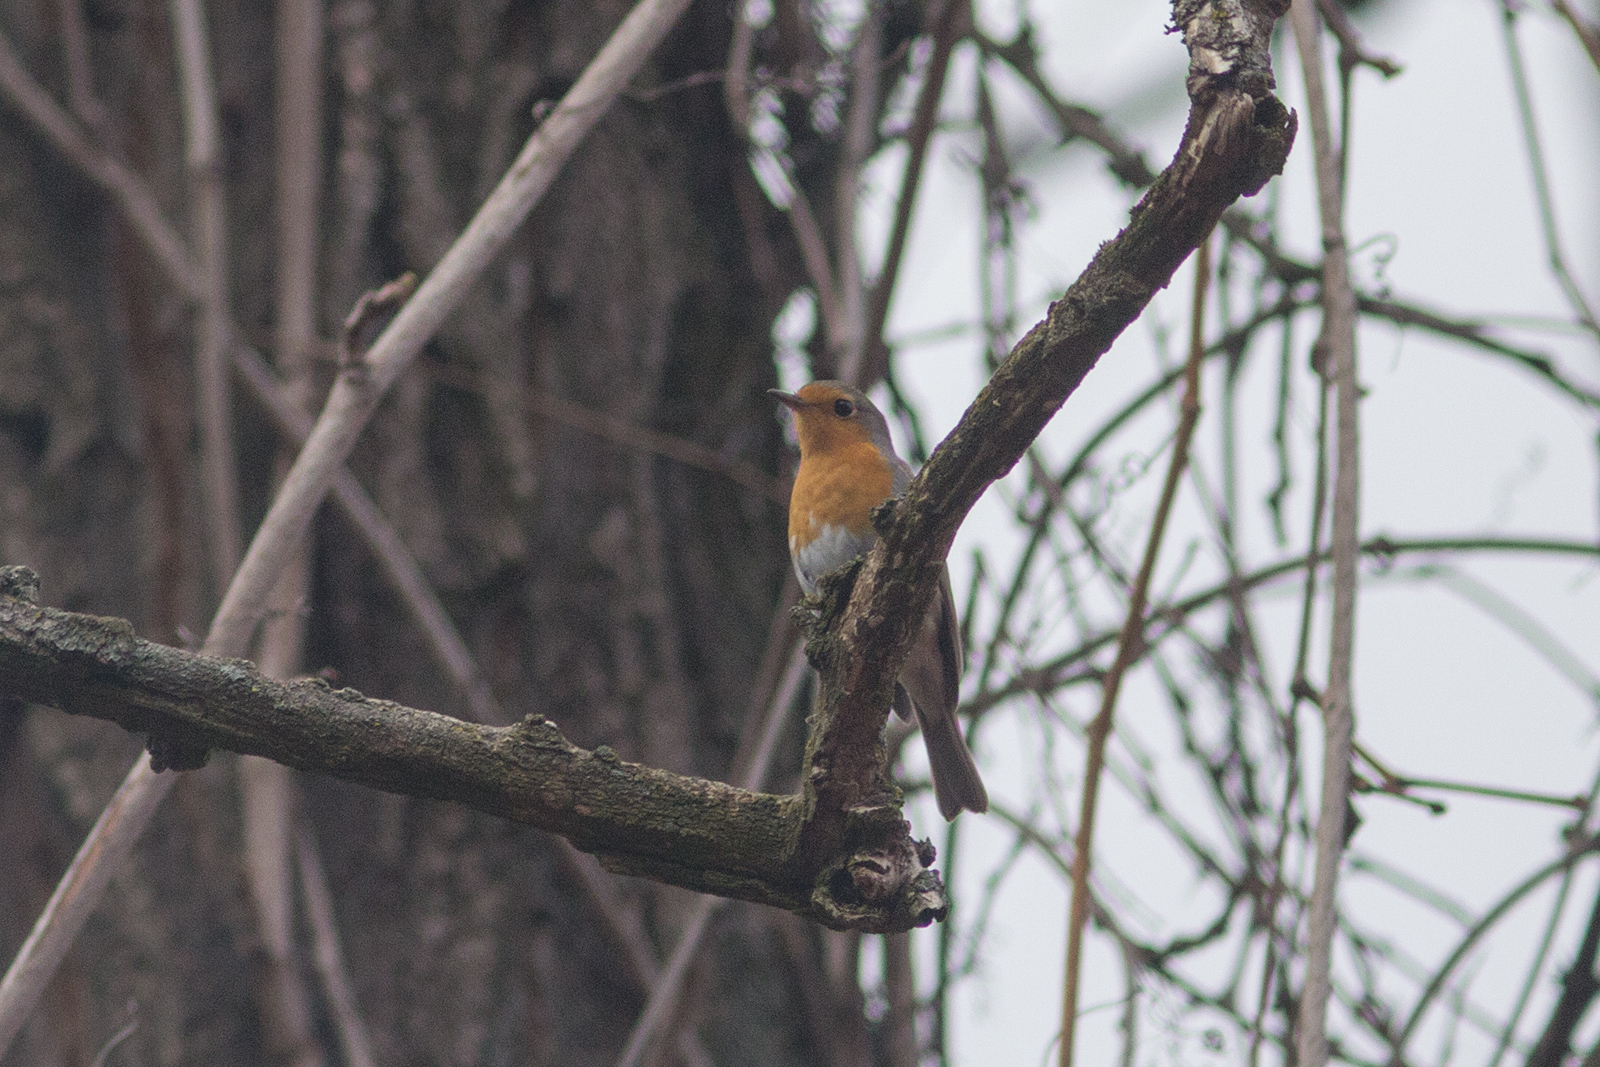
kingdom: Animalia
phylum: Chordata
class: Aves
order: Passeriformes
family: Muscicapidae
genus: Erithacus
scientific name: Erithacus rubecula
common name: European robin
